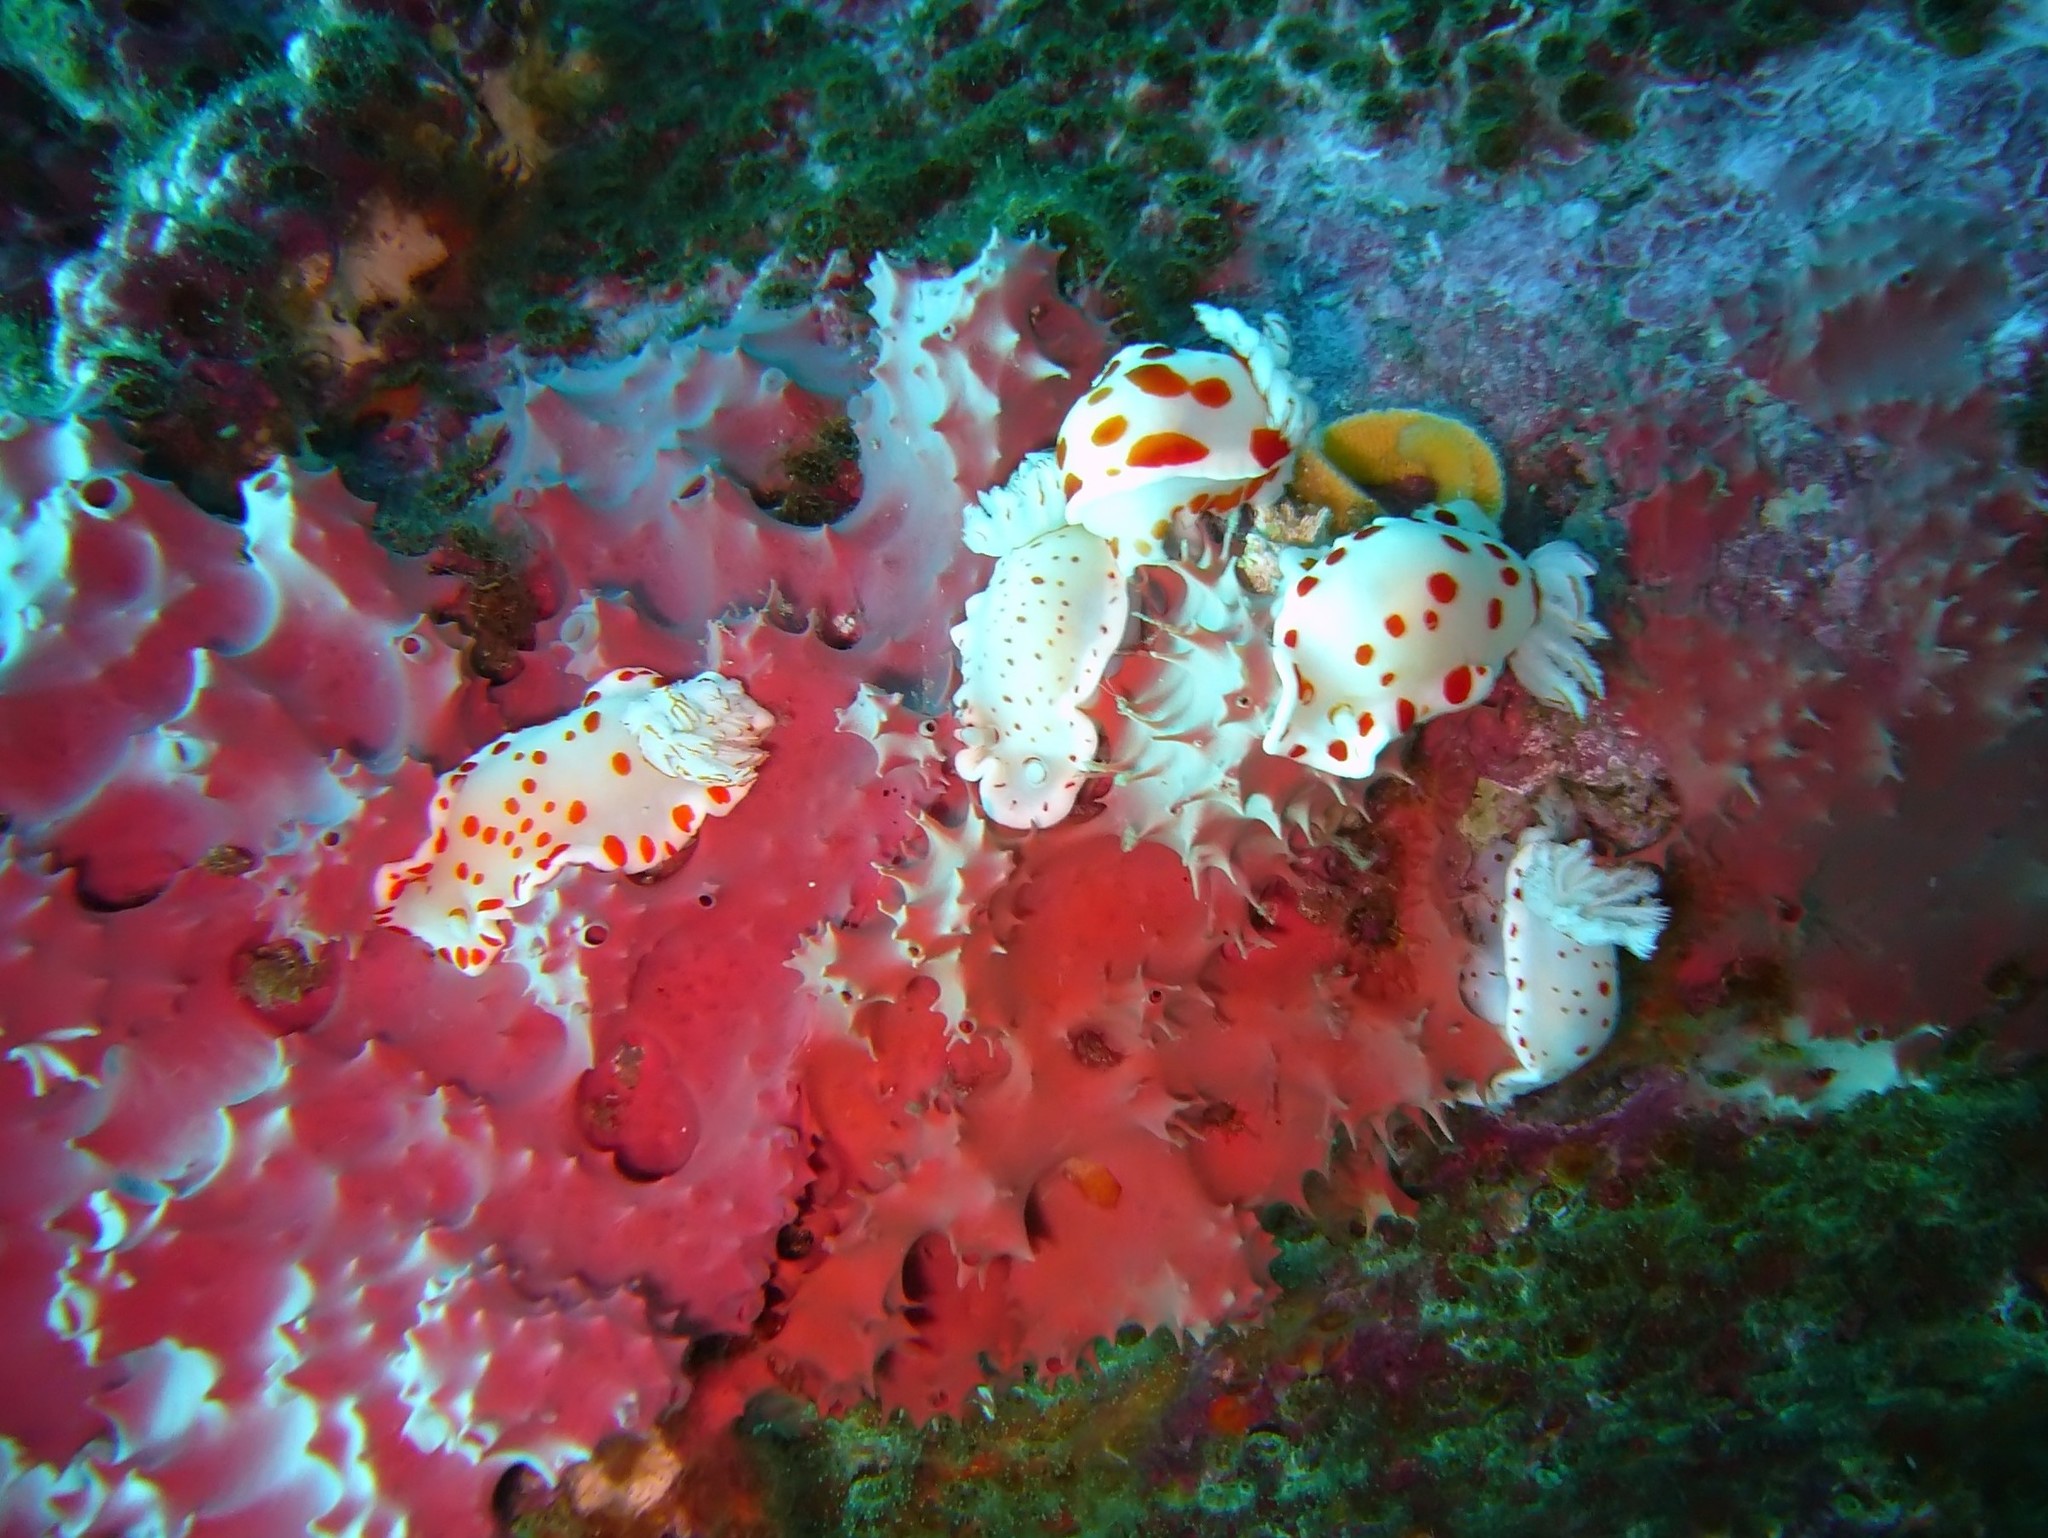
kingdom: Animalia
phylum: Mollusca
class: Gastropoda
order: Nudibranchia
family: Chromodorididae
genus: Goniobranchus
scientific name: Goniobranchus tasmaniensis
